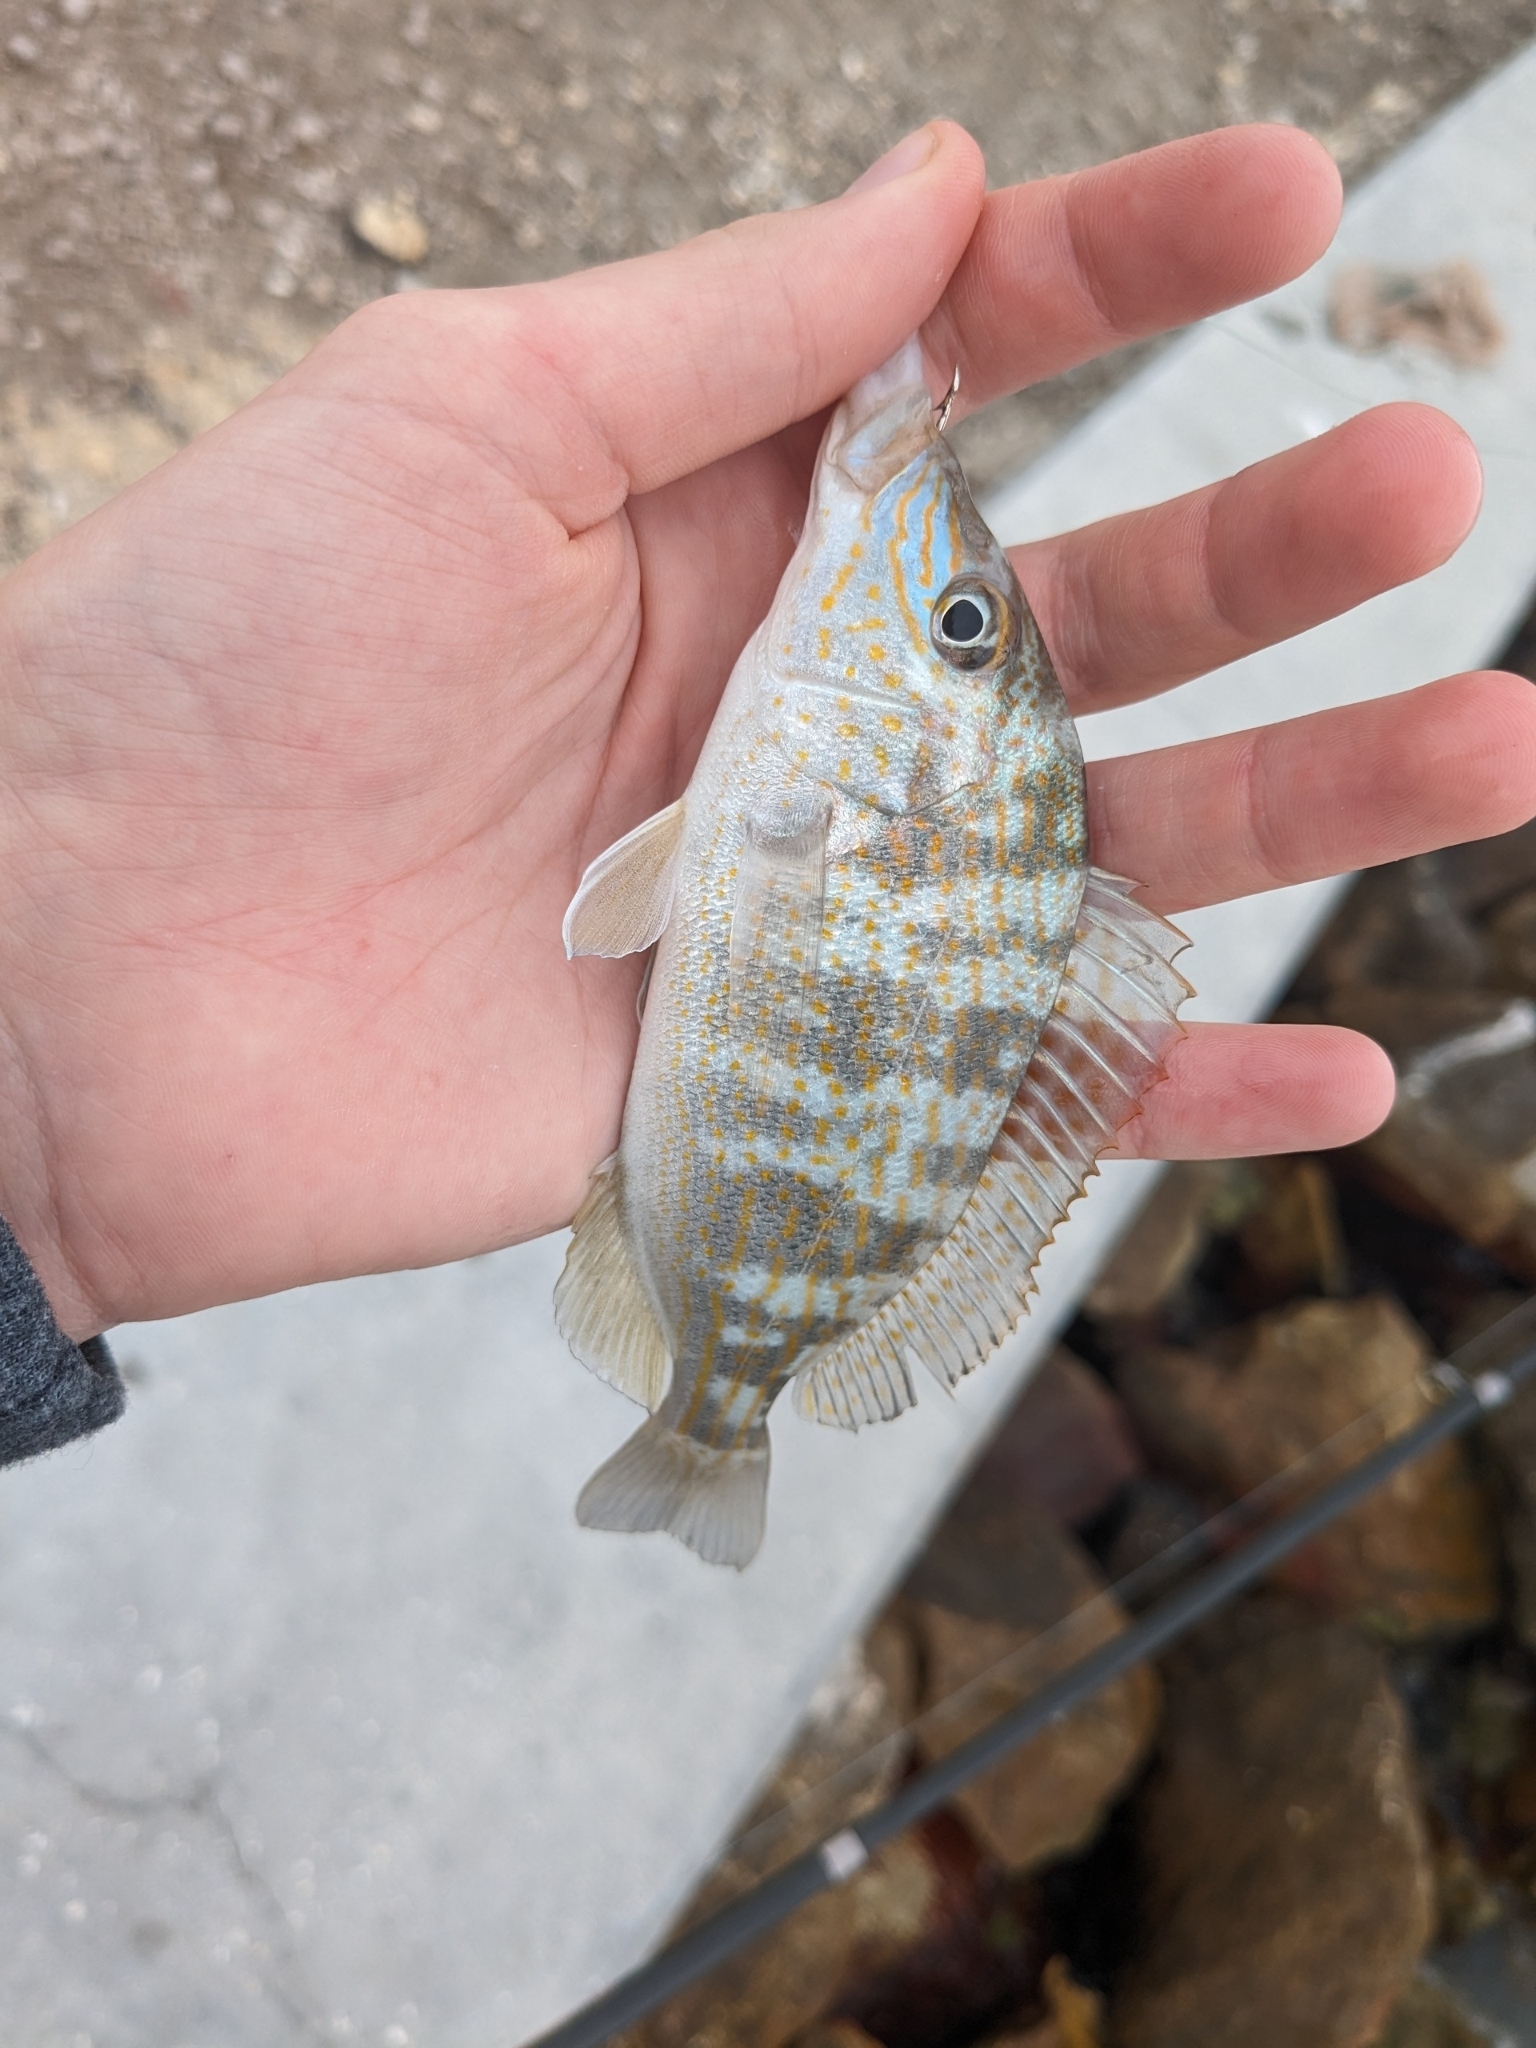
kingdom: Animalia
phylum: Chordata
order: Perciformes
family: Haemulidae
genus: Orthopristis
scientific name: Orthopristis chrysoptera
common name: Pigfish
